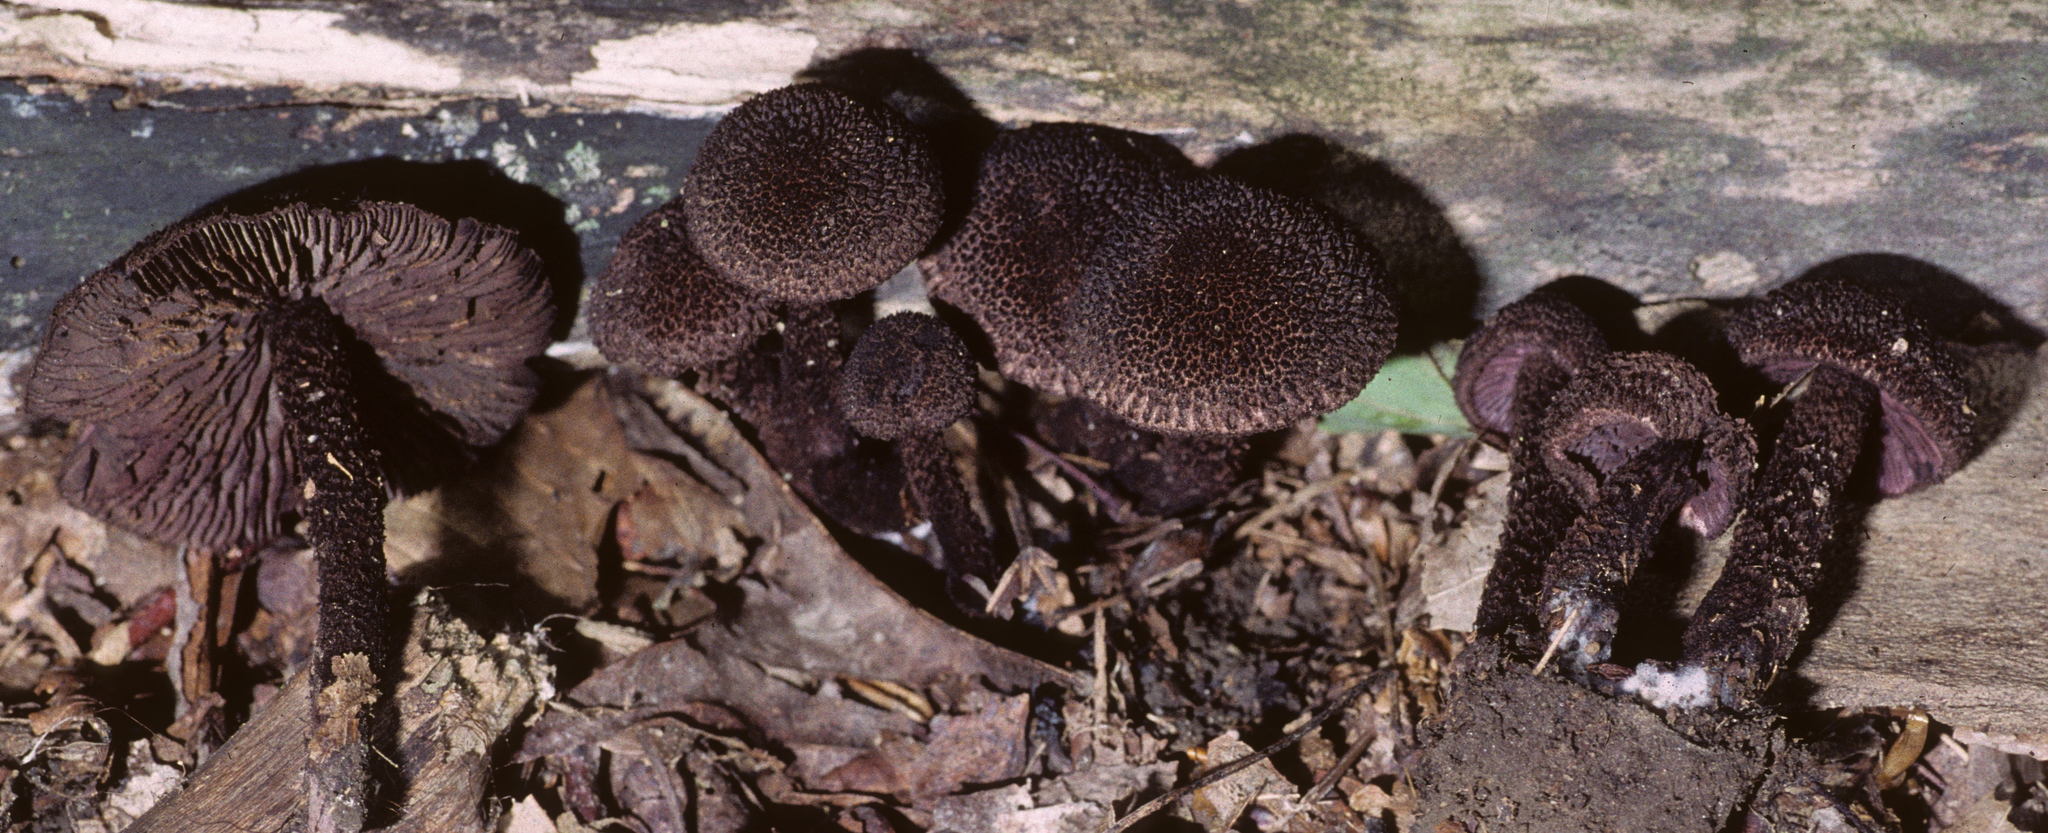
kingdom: Fungi
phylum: Basidiomycota
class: Agaricomycetes
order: Agaricales
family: Inocybaceae
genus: Inocybe
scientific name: Inocybe tahquamenonensis
